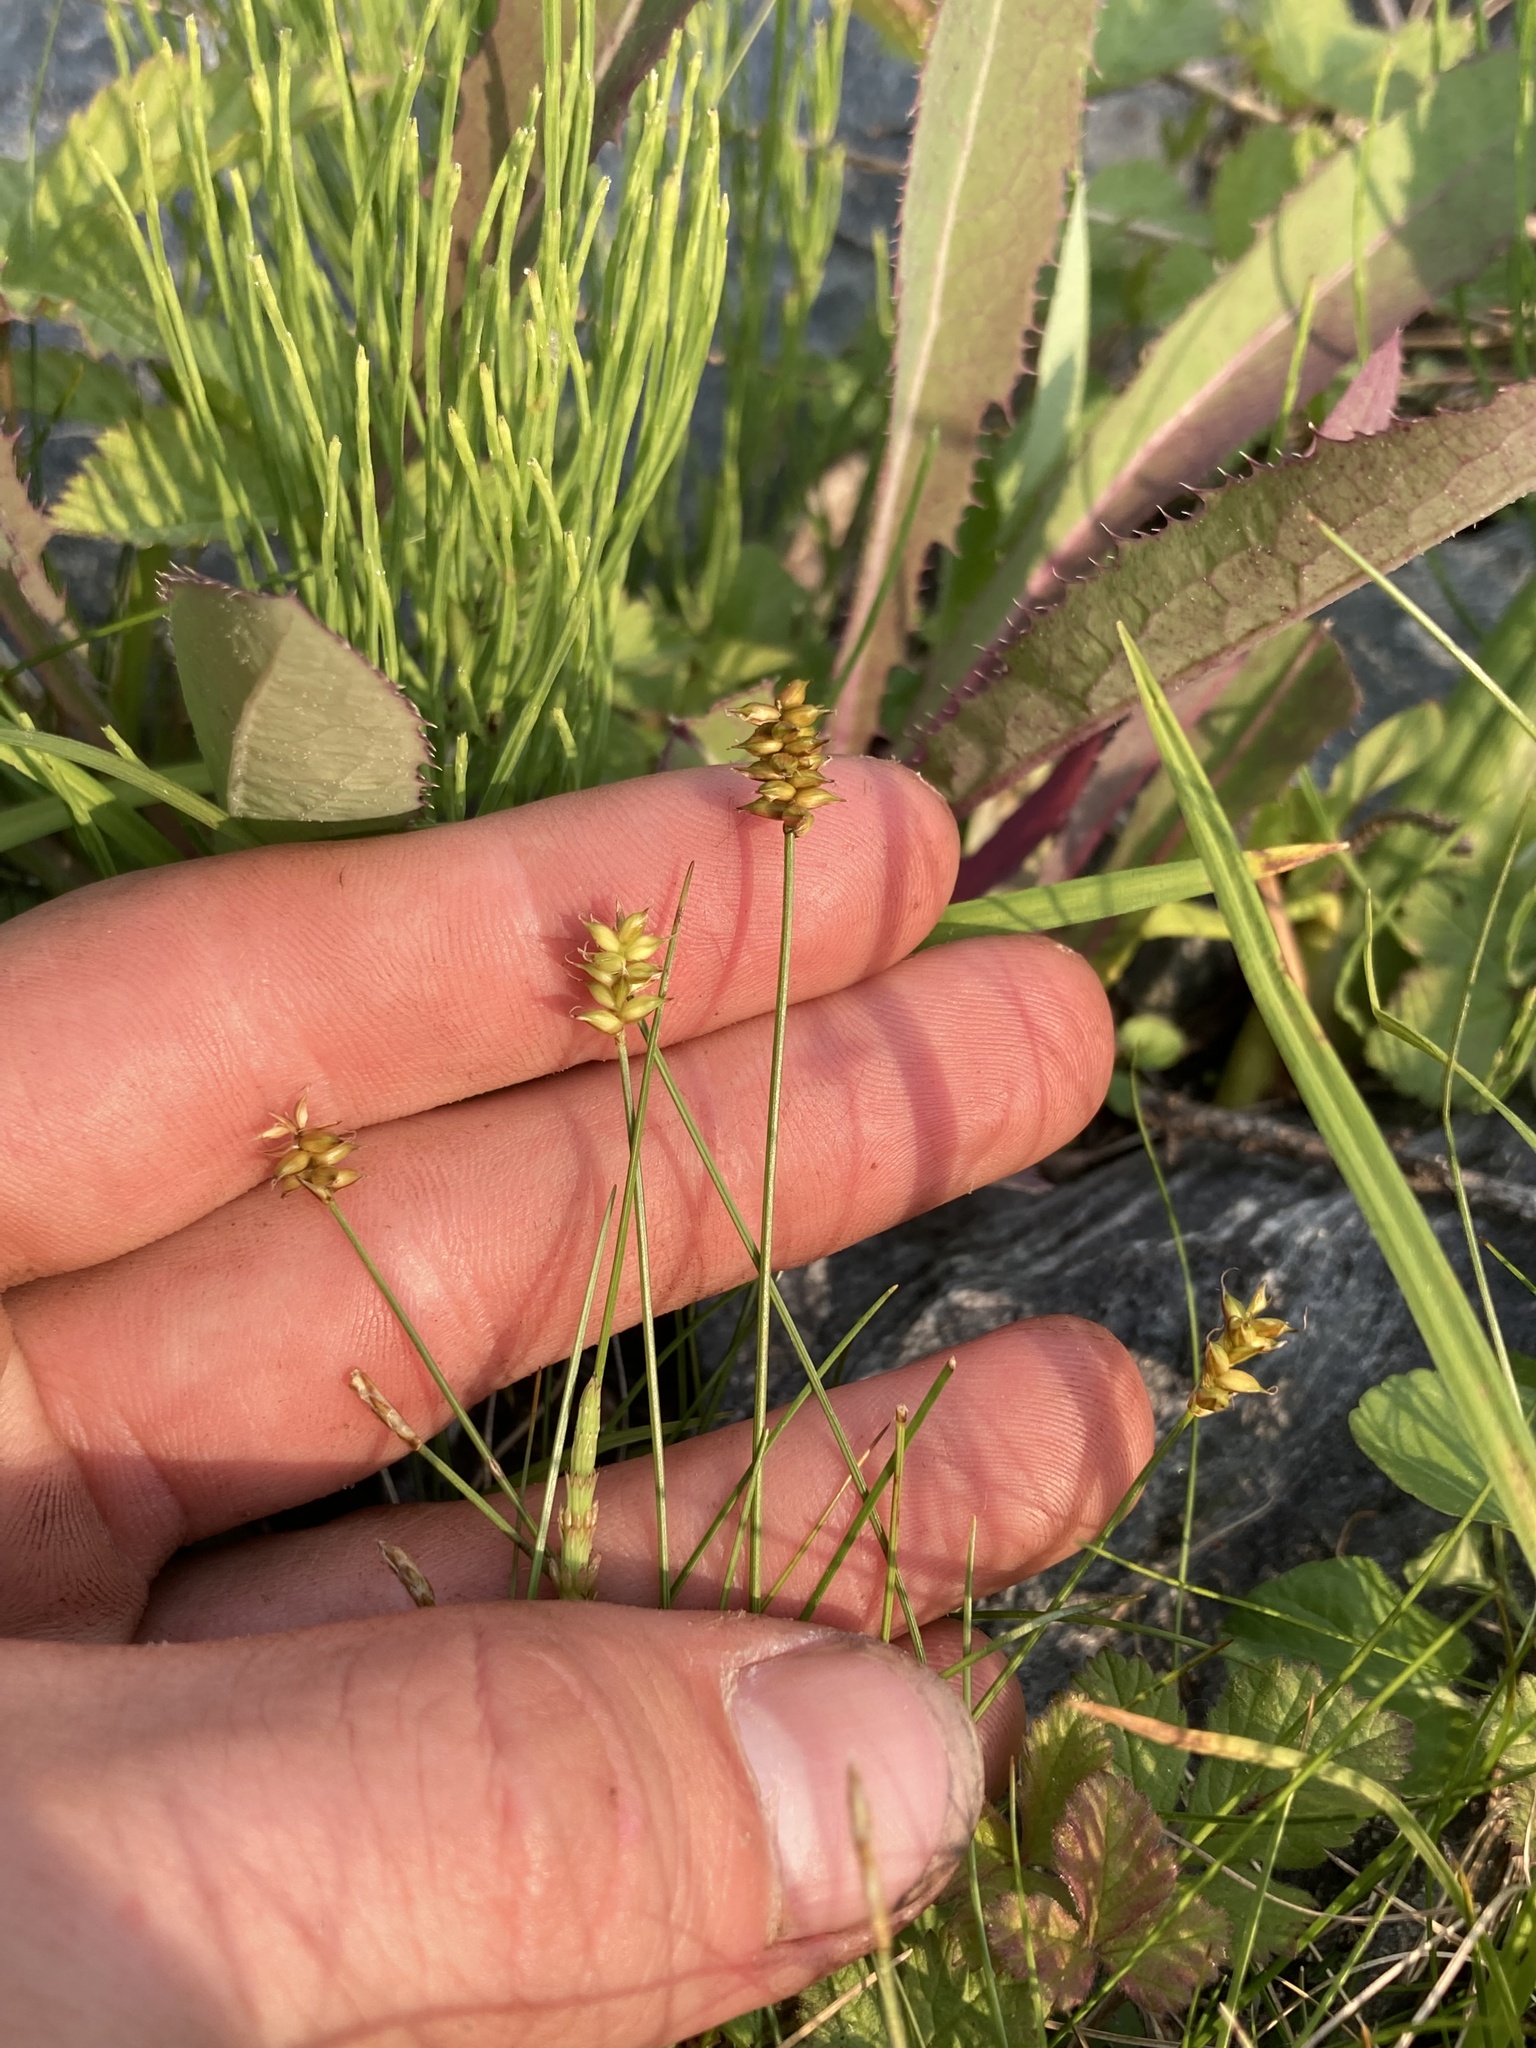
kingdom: Plantae
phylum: Tracheophyta
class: Liliopsida
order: Poales
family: Cyperaceae
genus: Carex
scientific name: Carex alascana
